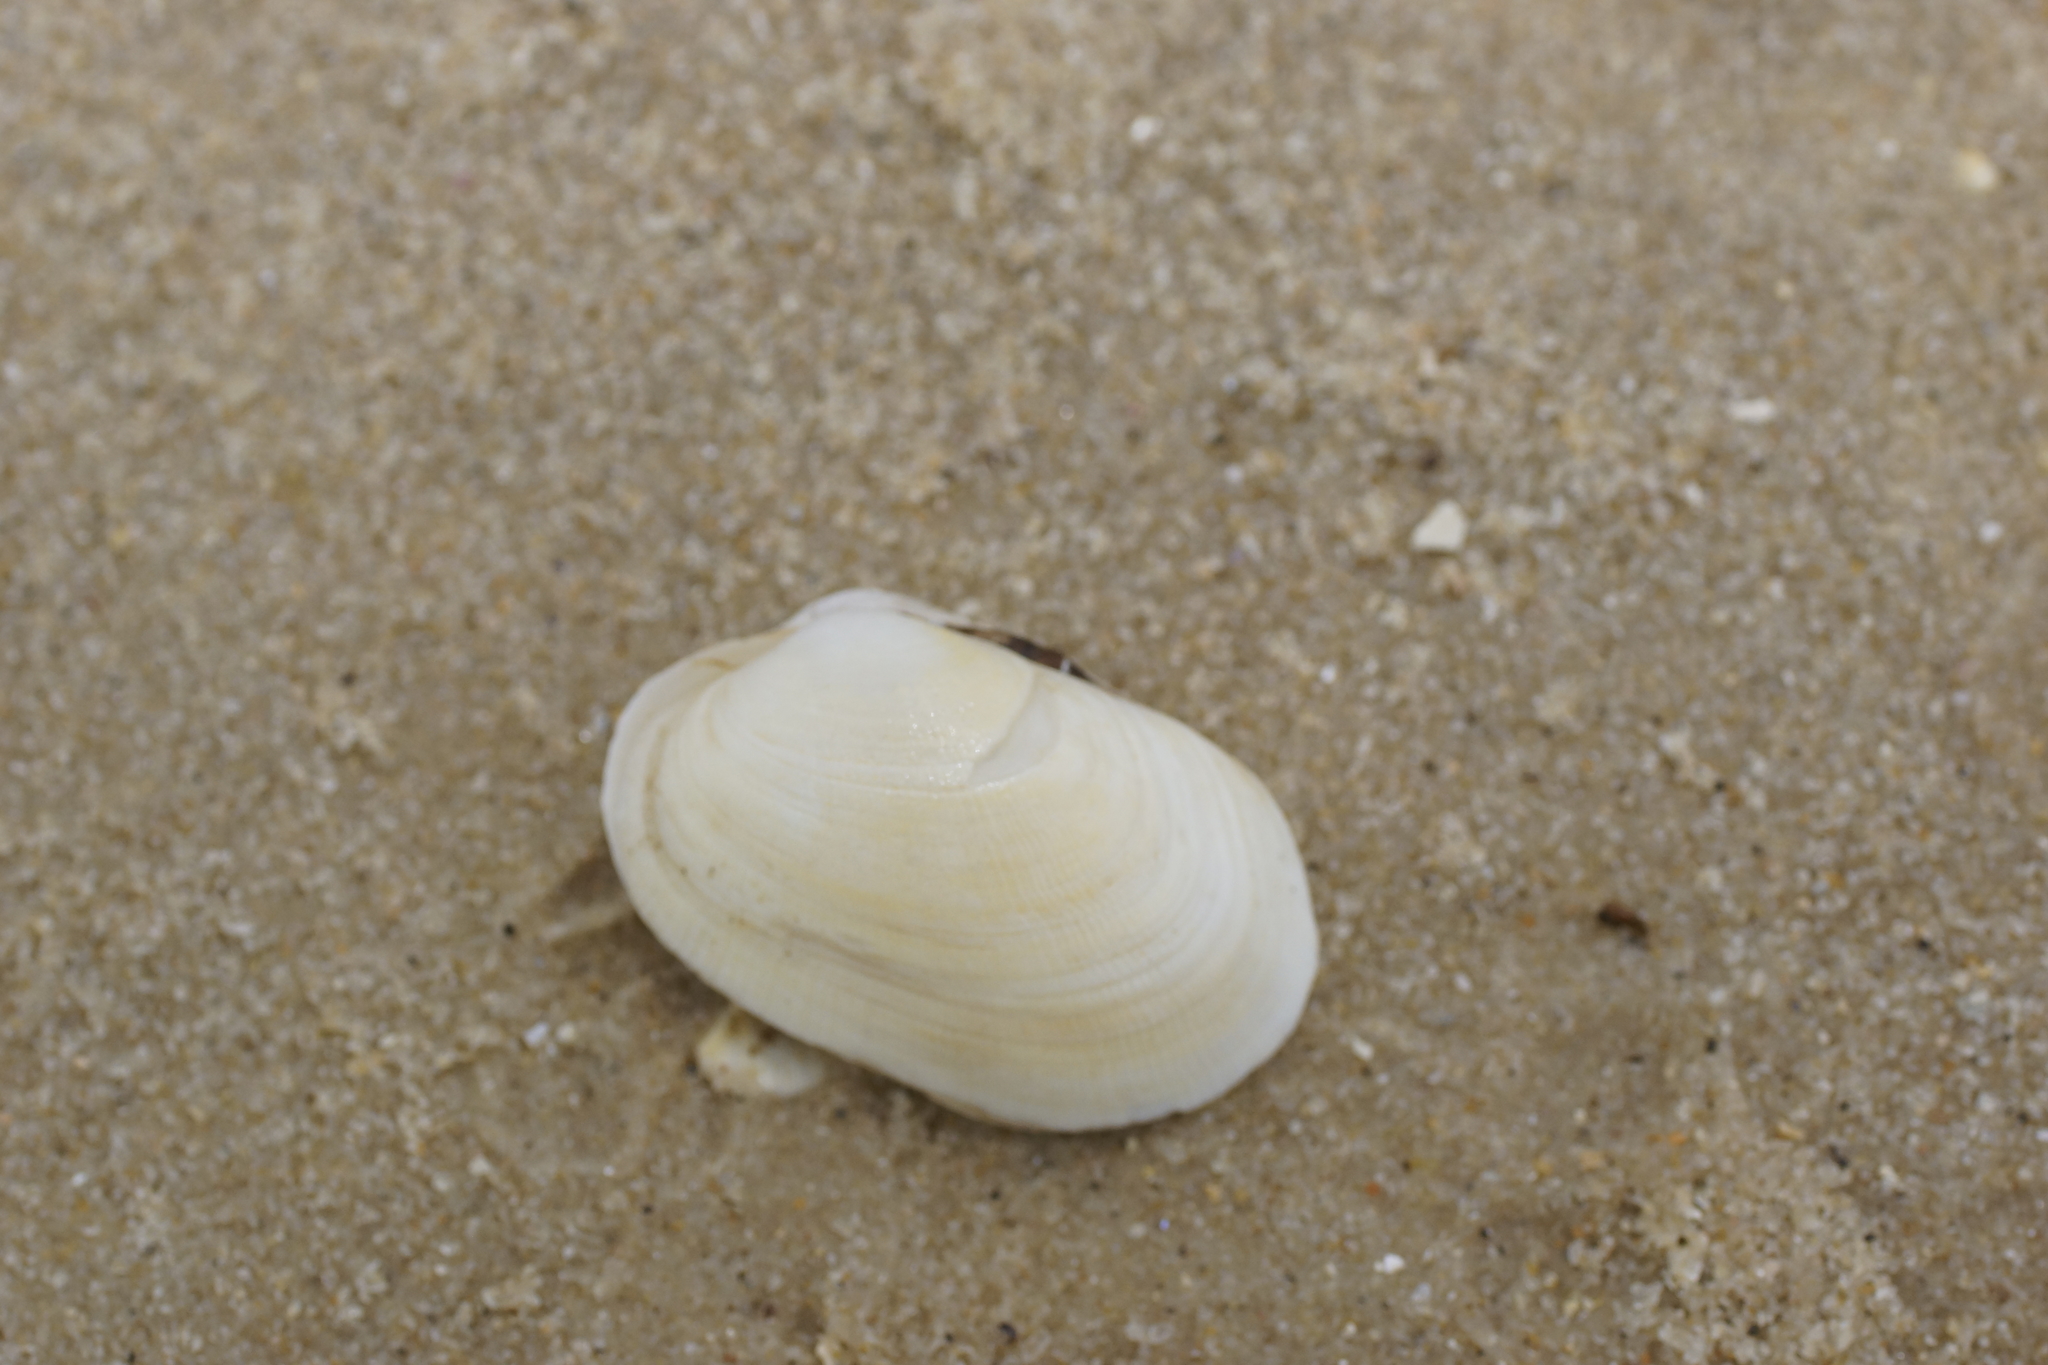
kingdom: Animalia
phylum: Mollusca
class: Bivalvia
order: Venerida
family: Veneridae
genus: Venerupis
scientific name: Venerupis galactites
